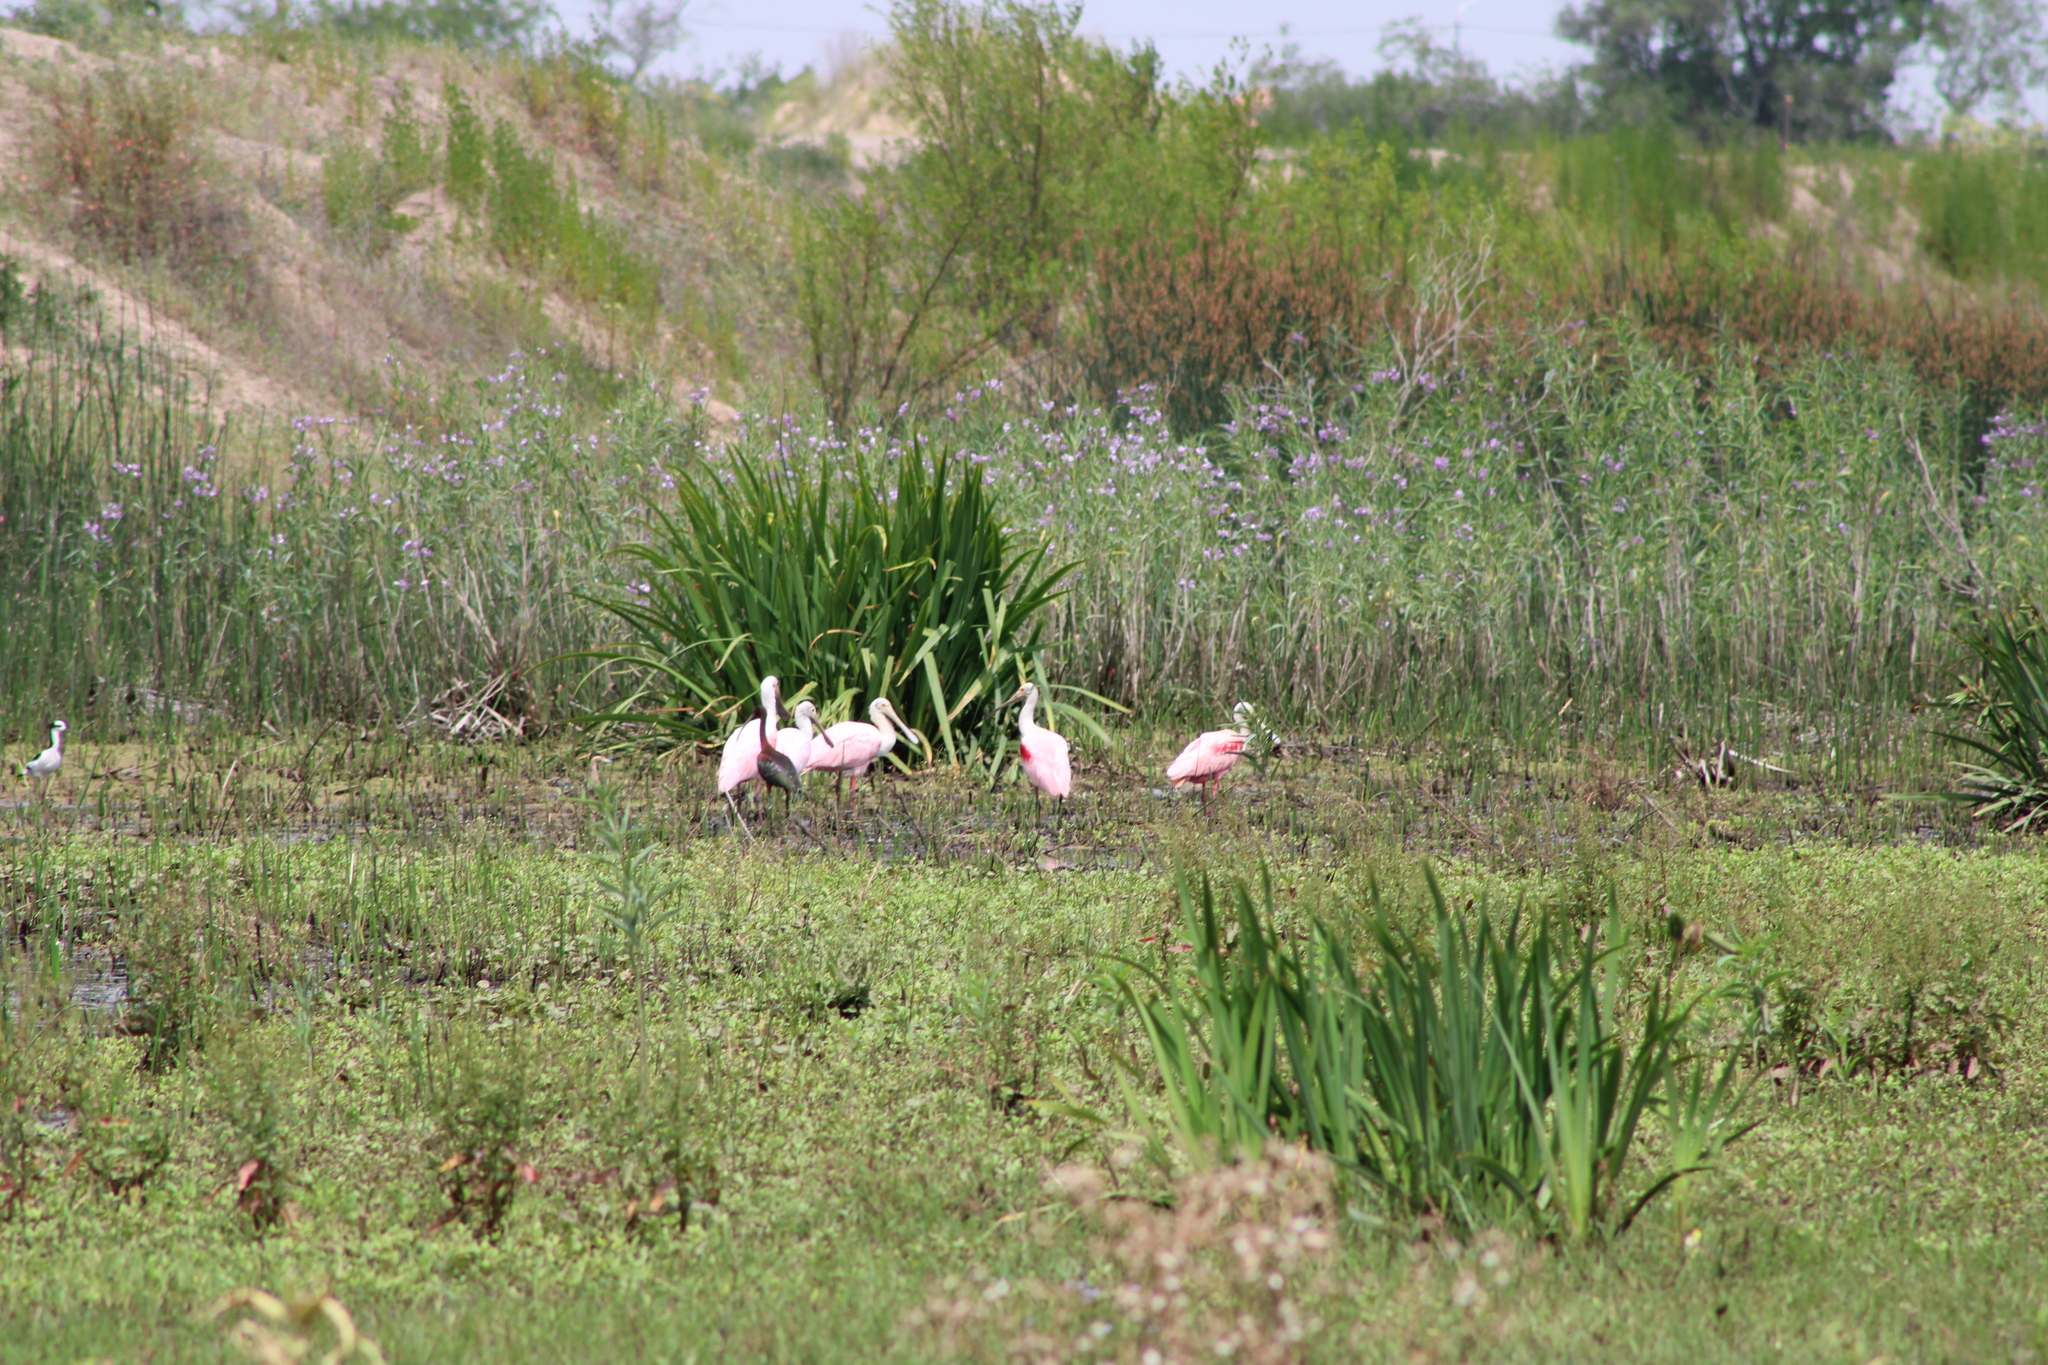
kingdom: Animalia
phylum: Chordata
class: Aves
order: Pelecaniformes
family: Threskiornithidae
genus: Platalea
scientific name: Platalea ajaja
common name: Roseate spoonbill
